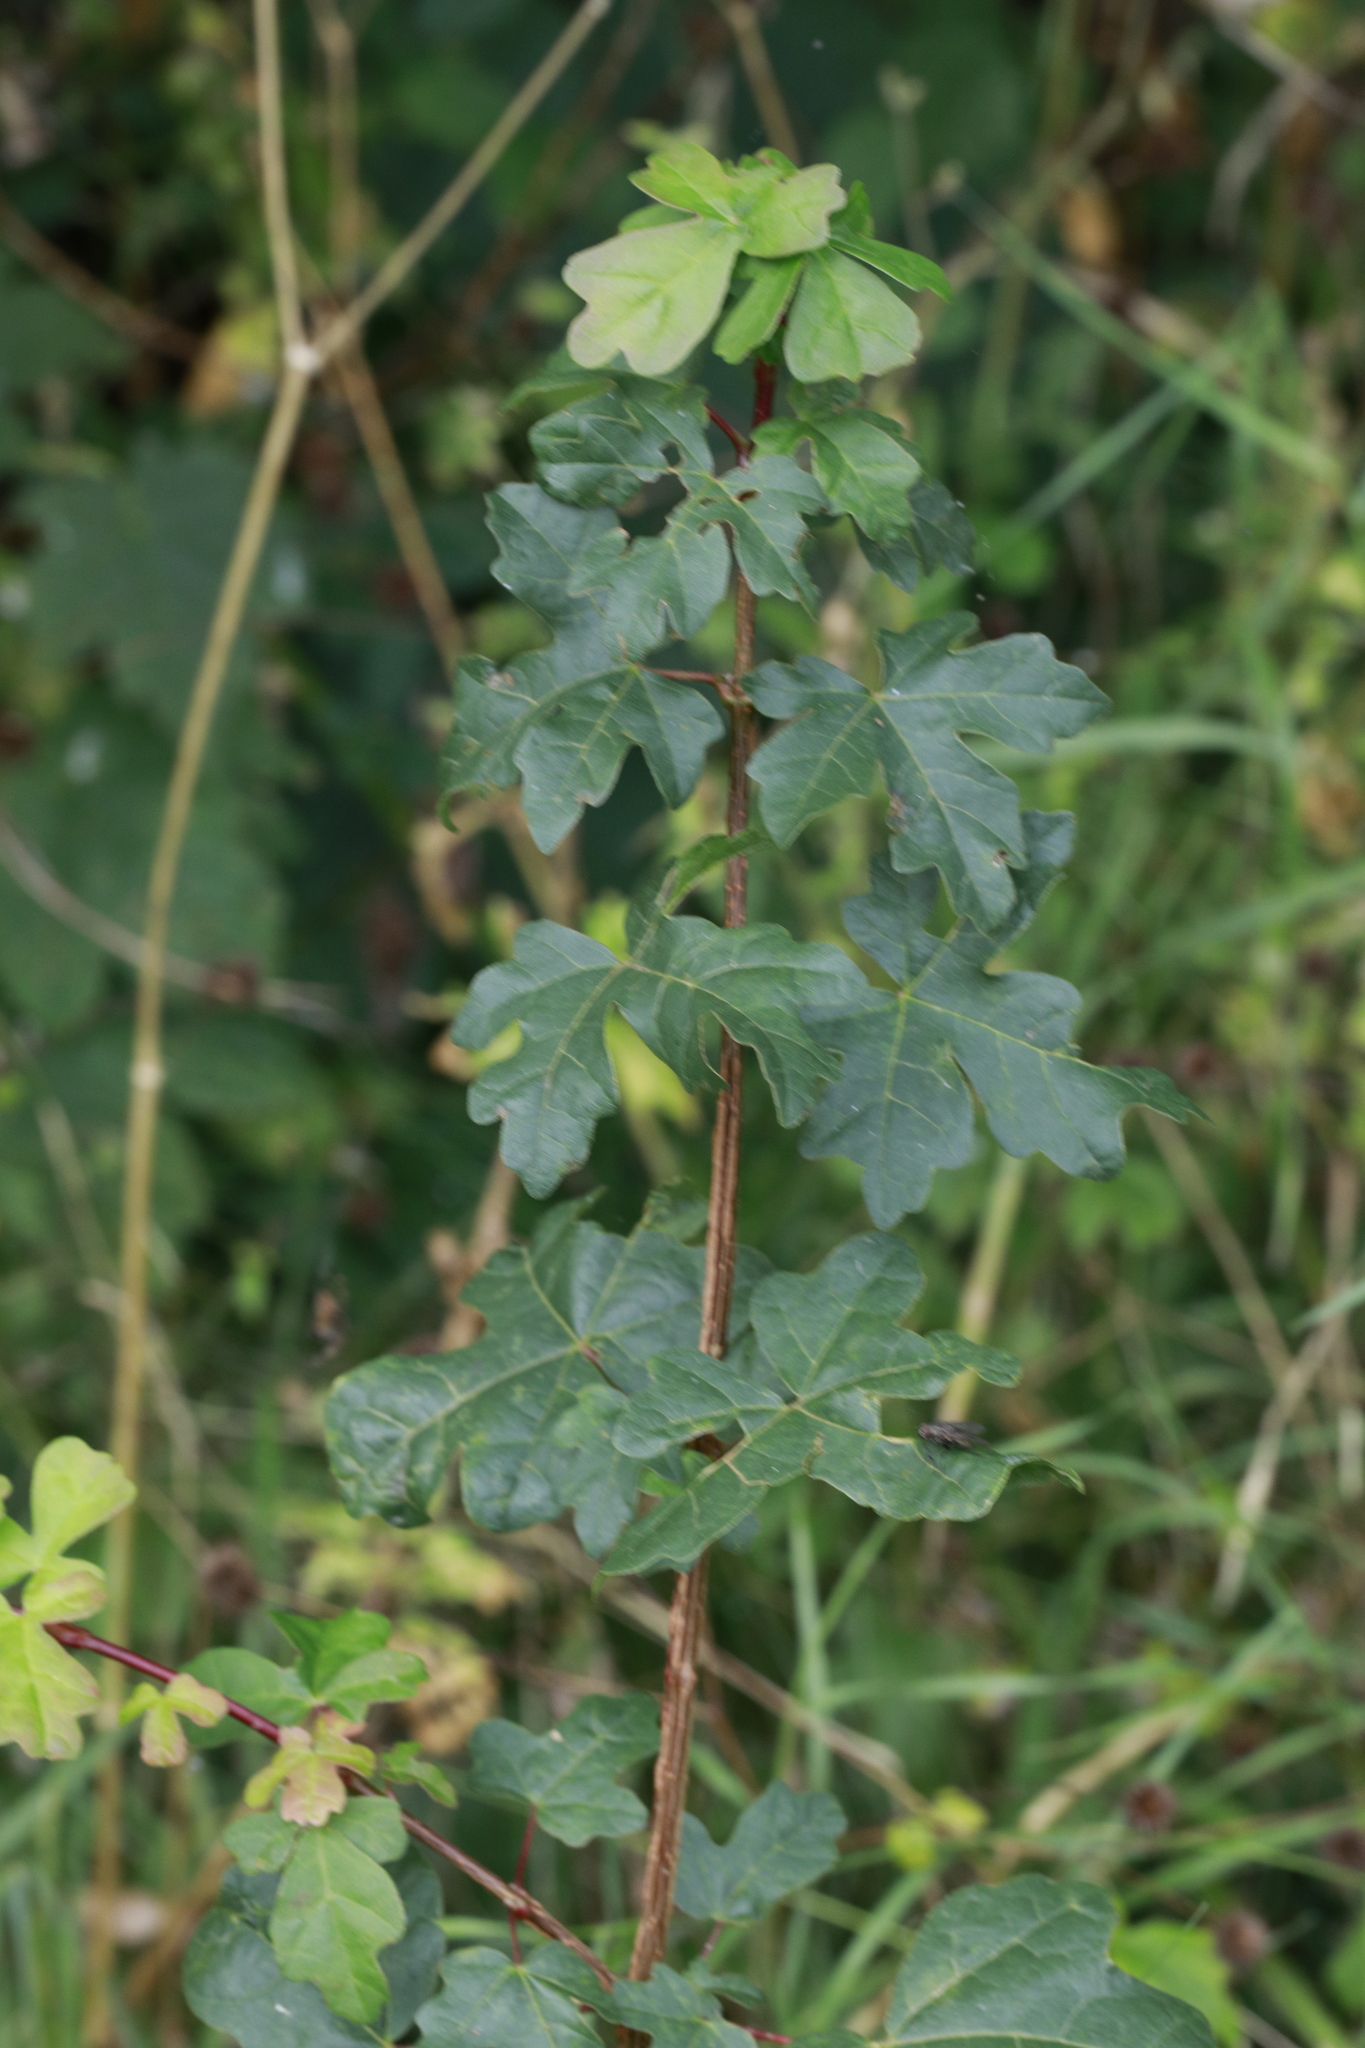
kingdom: Plantae
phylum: Tracheophyta
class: Magnoliopsida
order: Sapindales
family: Sapindaceae
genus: Acer
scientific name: Acer campestre
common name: Field maple
